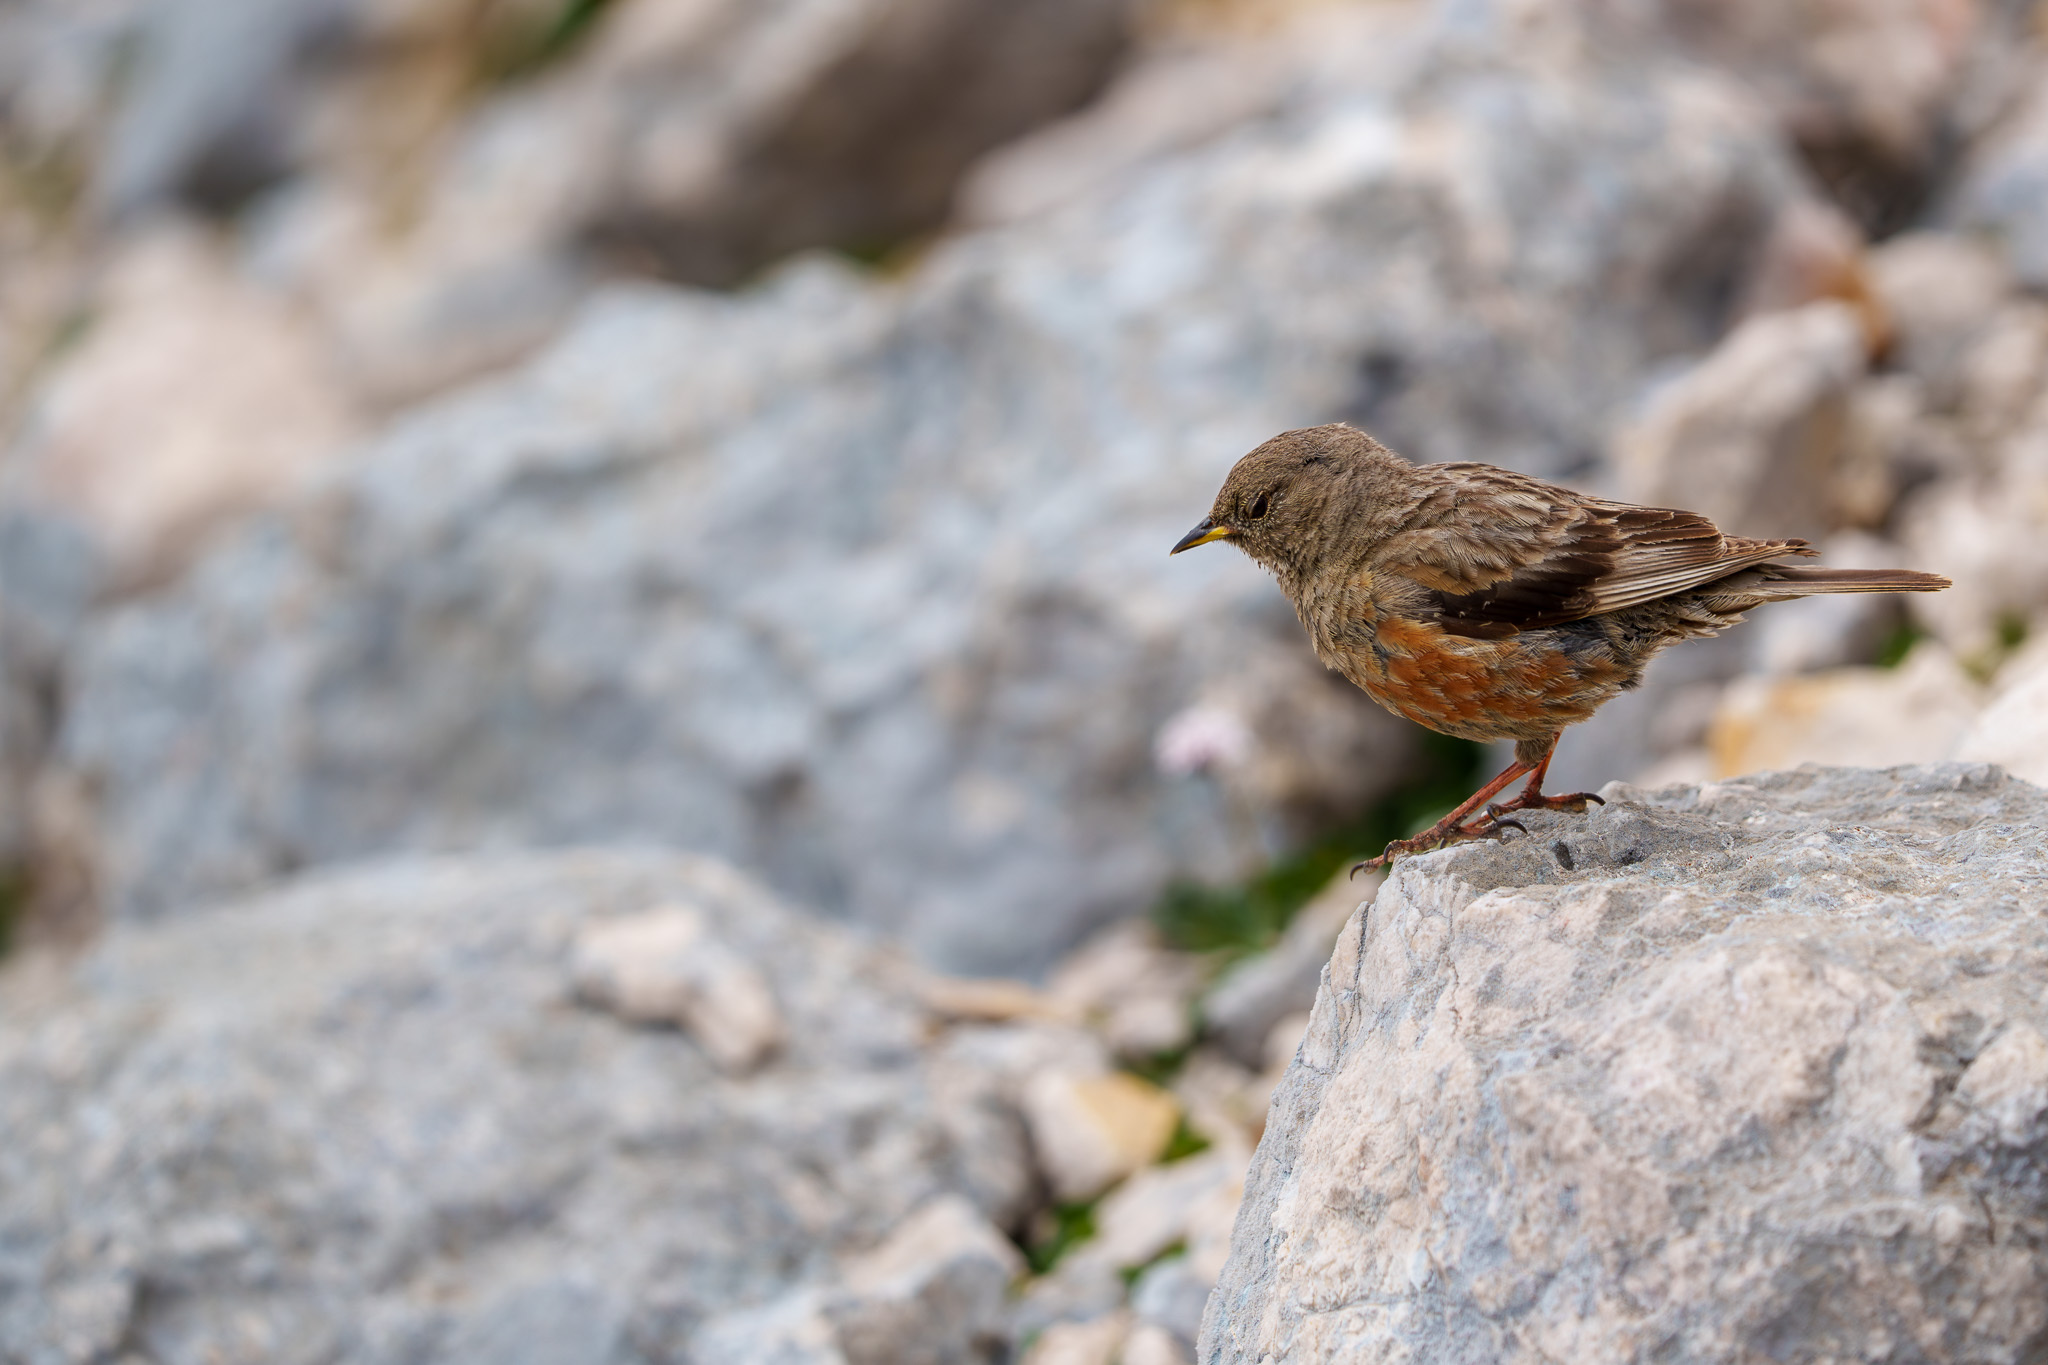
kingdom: Animalia
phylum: Chordata
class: Aves
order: Passeriformes
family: Prunellidae
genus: Prunella
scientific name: Prunella collaris
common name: Alpine accentor
